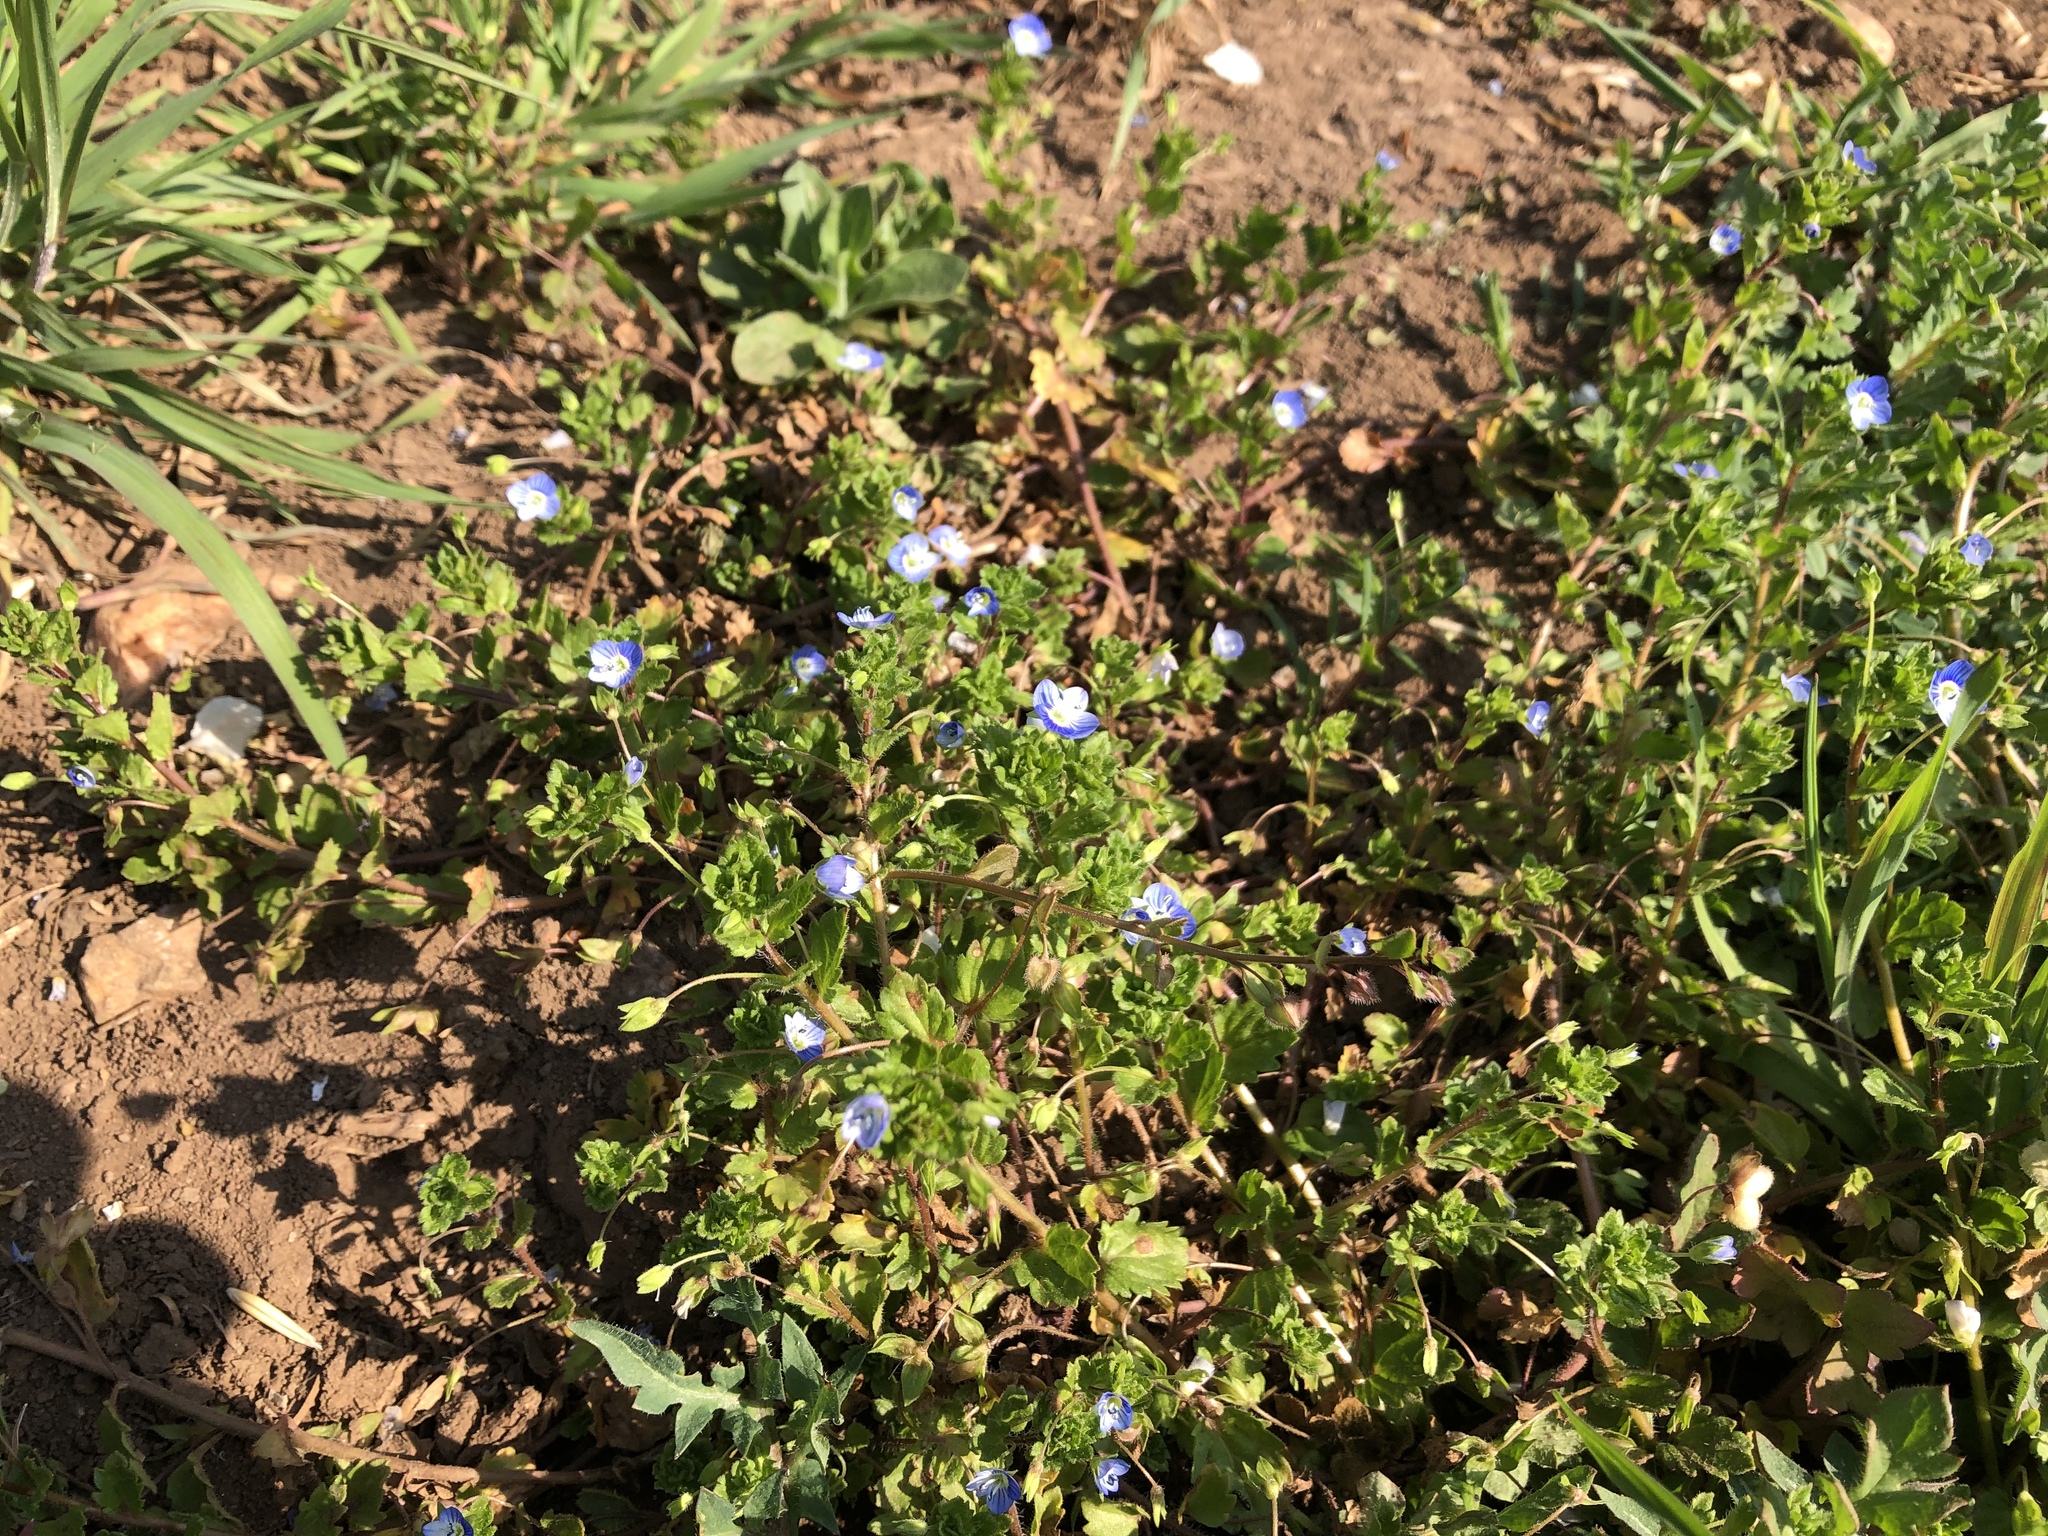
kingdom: Plantae
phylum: Tracheophyta
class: Magnoliopsida
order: Lamiales
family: Plantaginaceae
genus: Veronica
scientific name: Veronica persica
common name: Common field-speedwell
